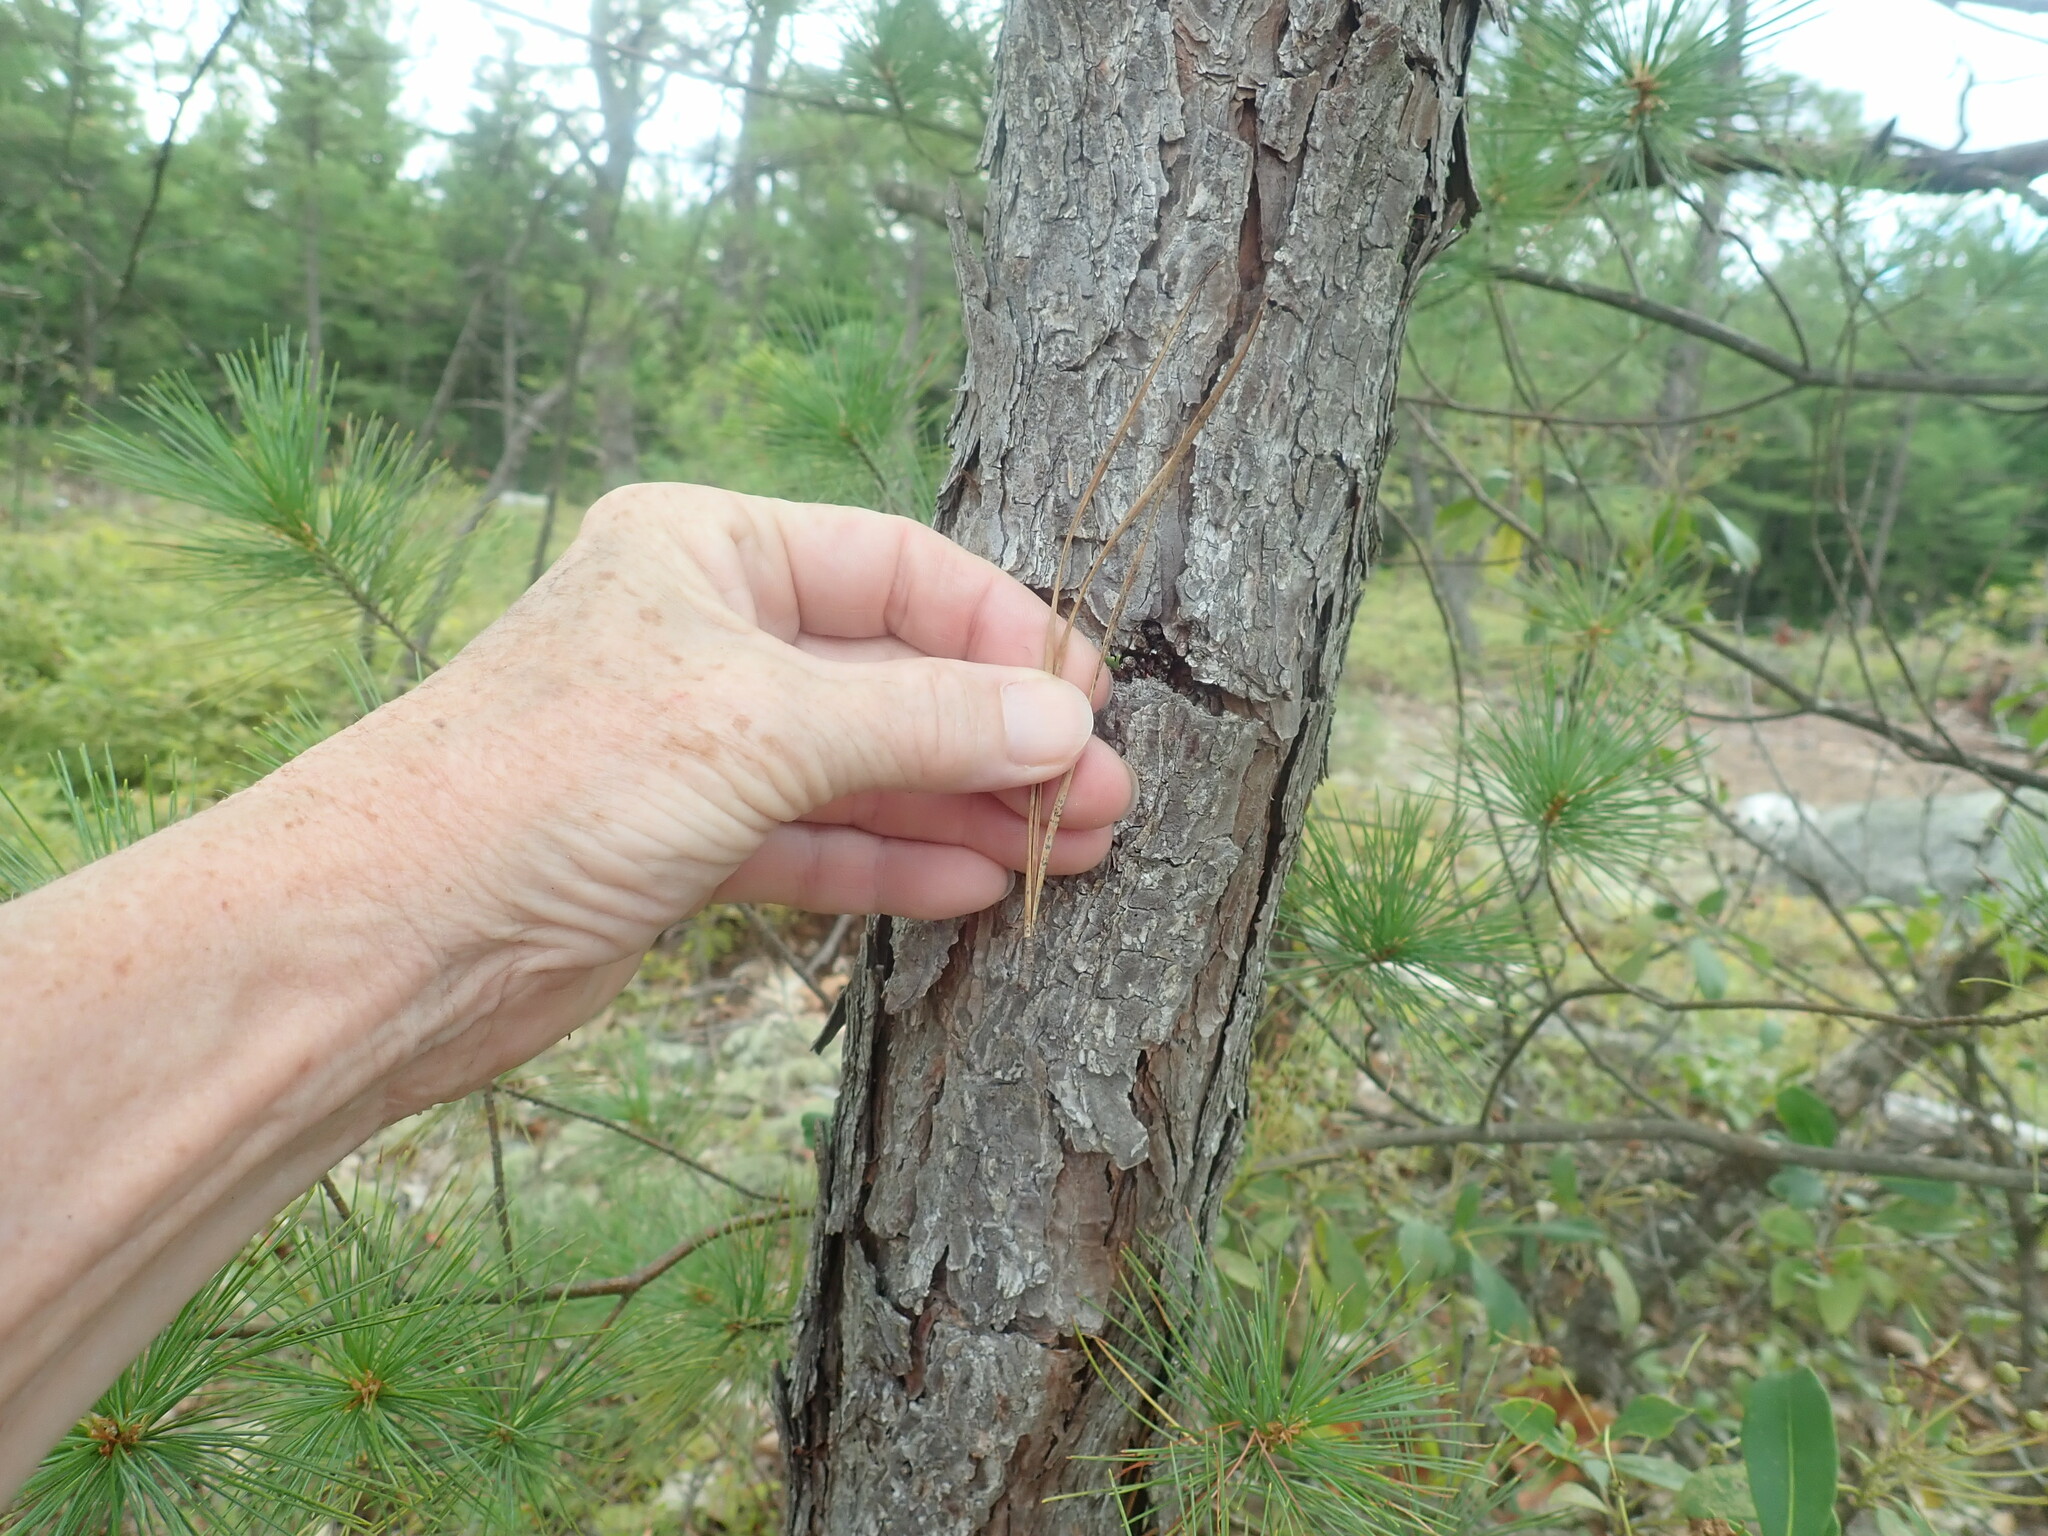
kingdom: Plantae
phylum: Tracheophyta
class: Pinopsida
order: Pinales
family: Pinaceae
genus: Pinus
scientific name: Pinus rigida
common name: Pitch pine
